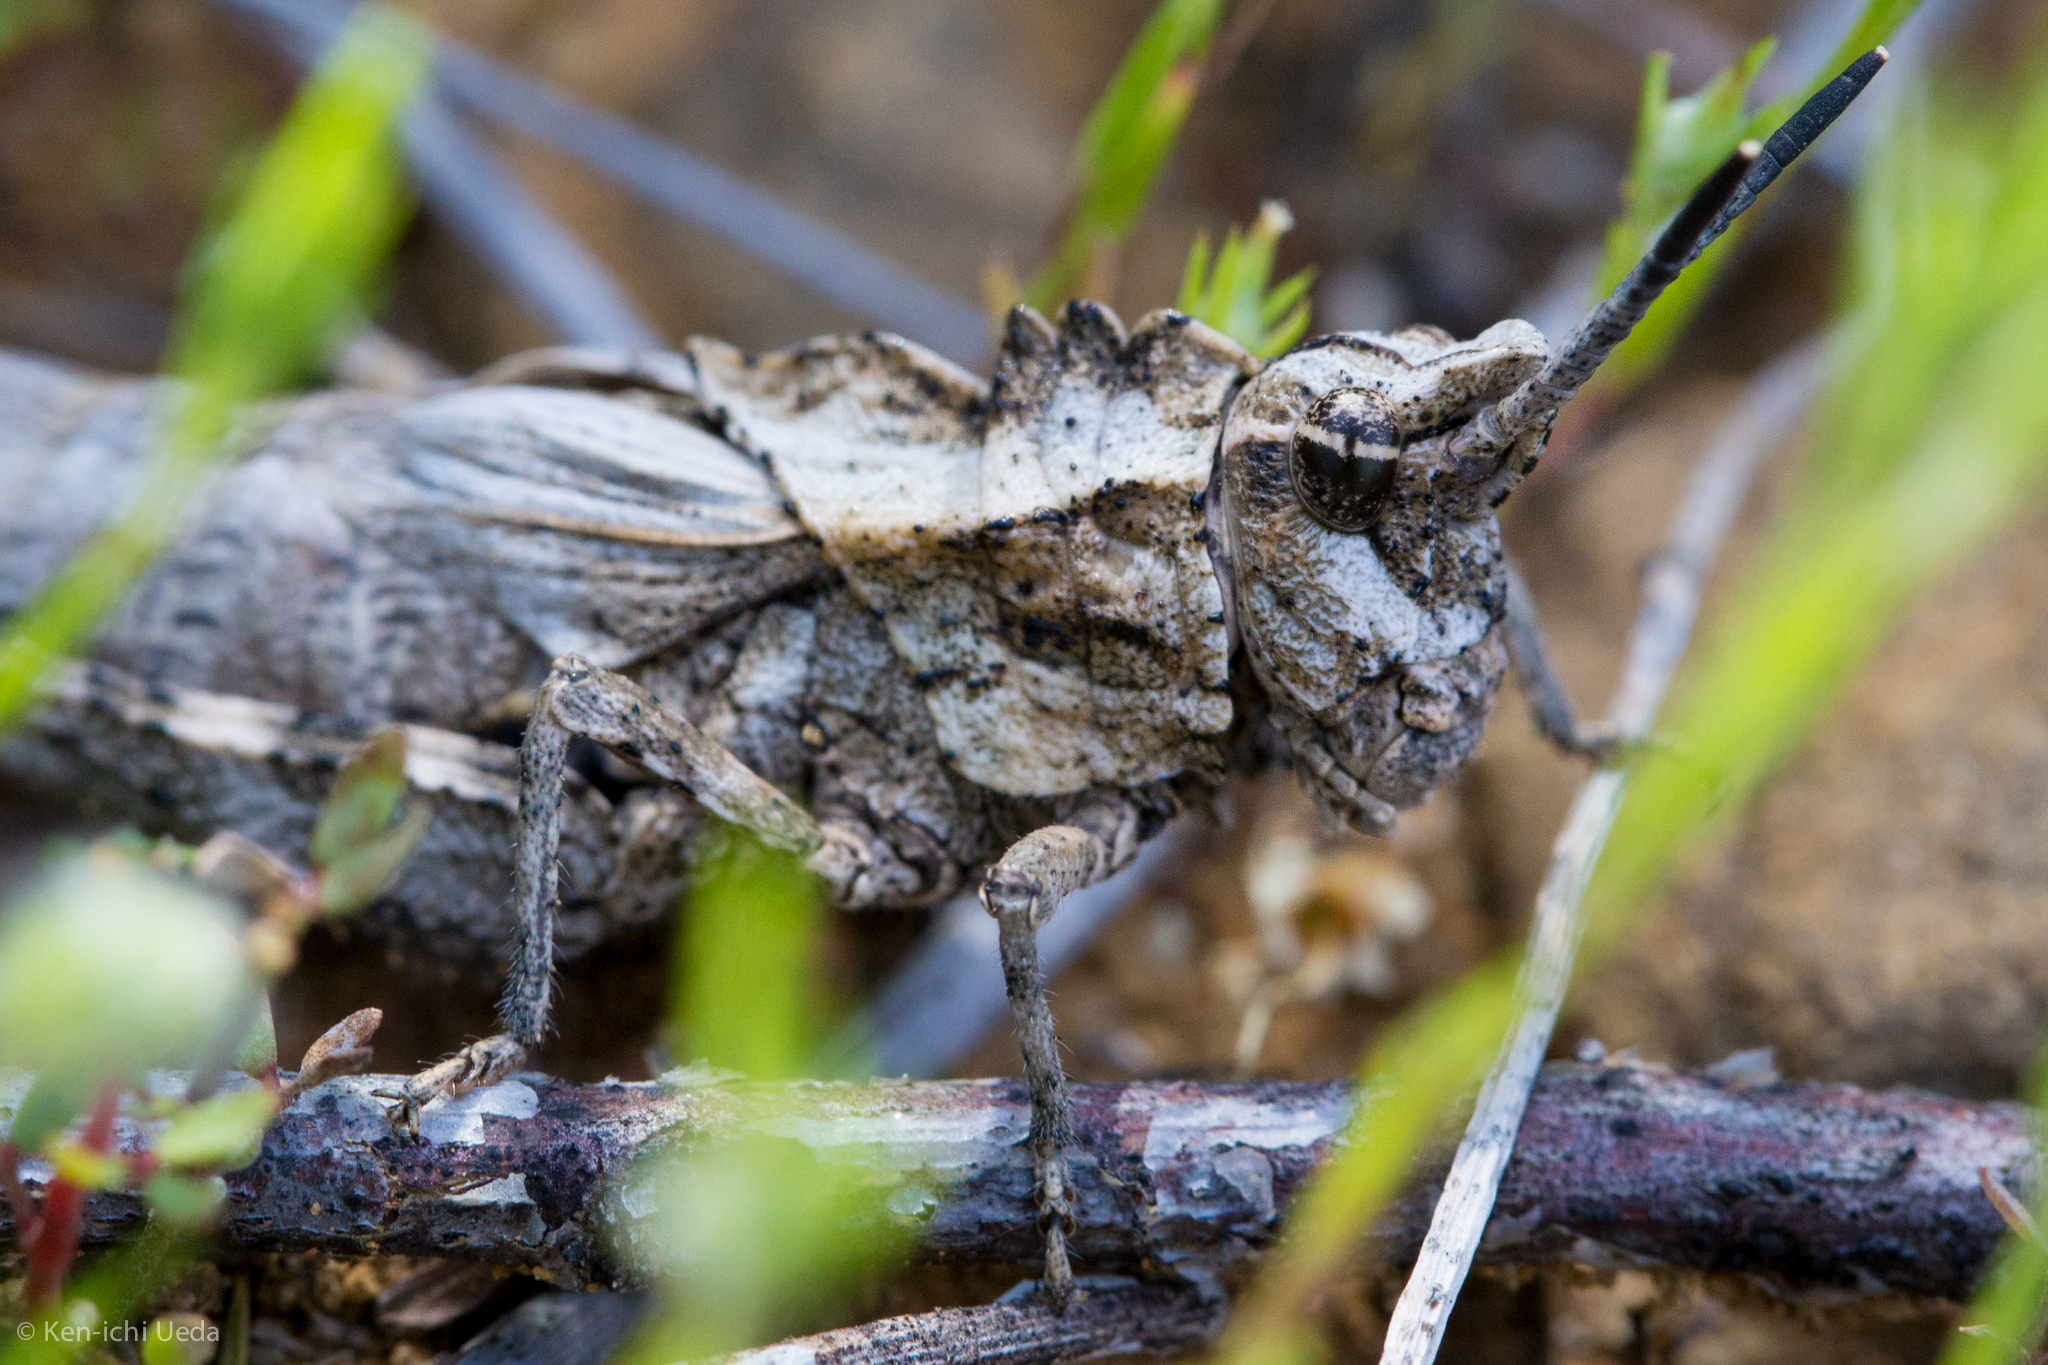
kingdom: Animalia
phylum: Arthropoda
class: Insecta
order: Orthoptera
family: Romaleidae
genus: Dracotettix
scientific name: Dracotettix monstrosus
